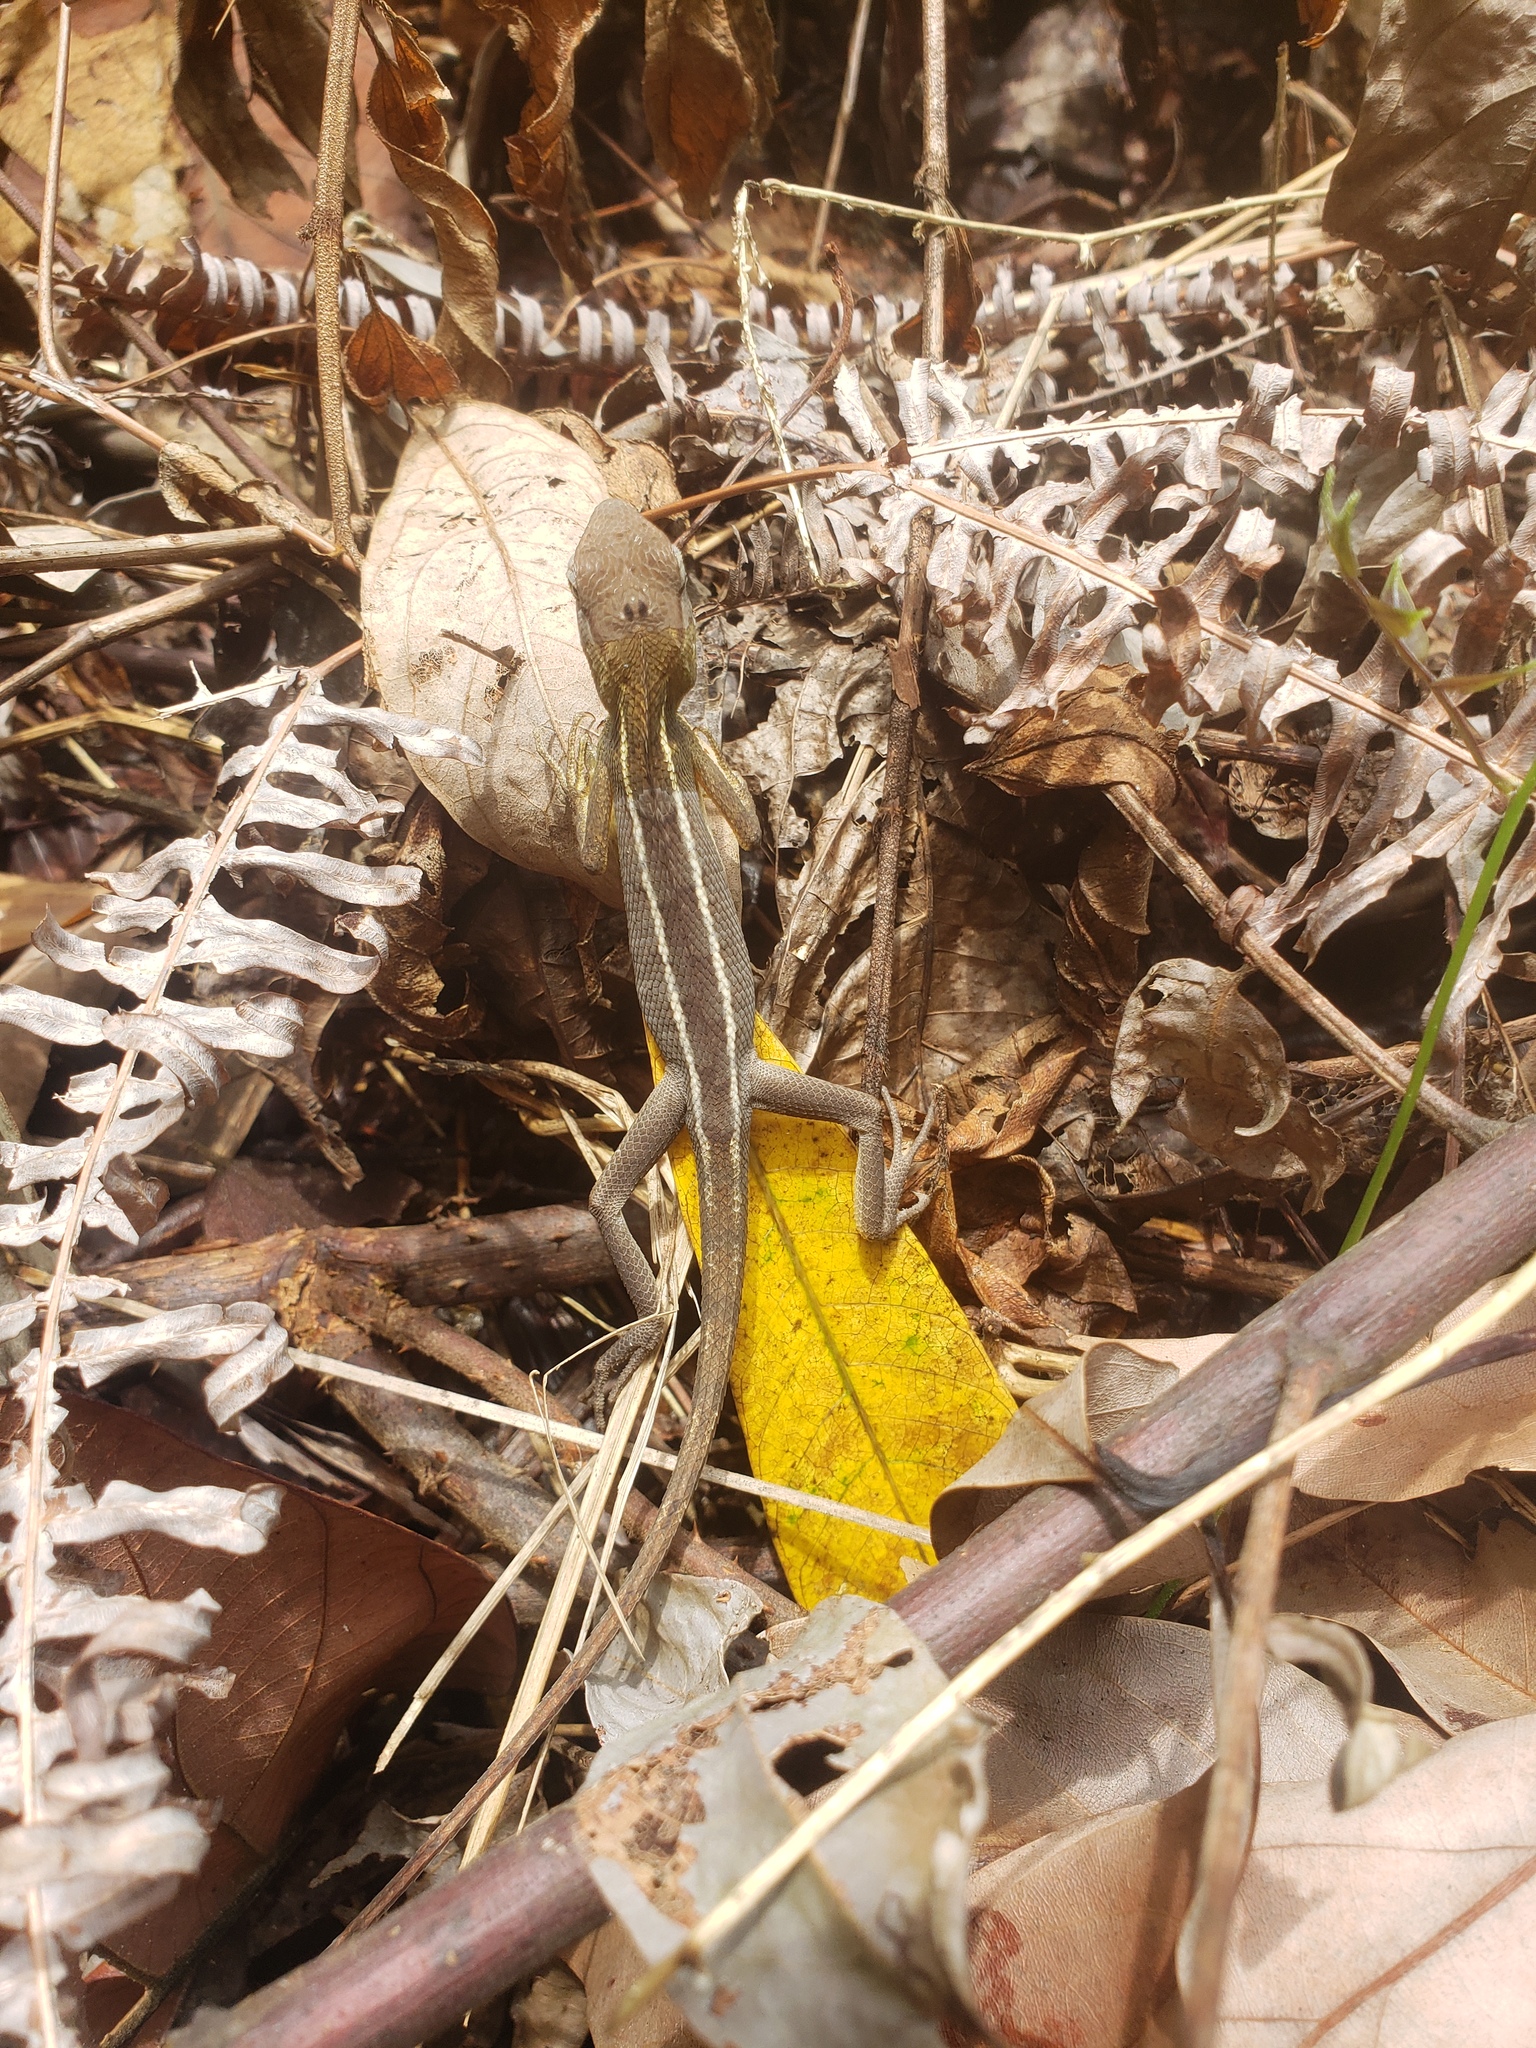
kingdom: Animalia
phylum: Chordata
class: Squamata
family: Agamidae
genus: Calotes
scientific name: Calotes versicolor
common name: Oriental garden lizard
